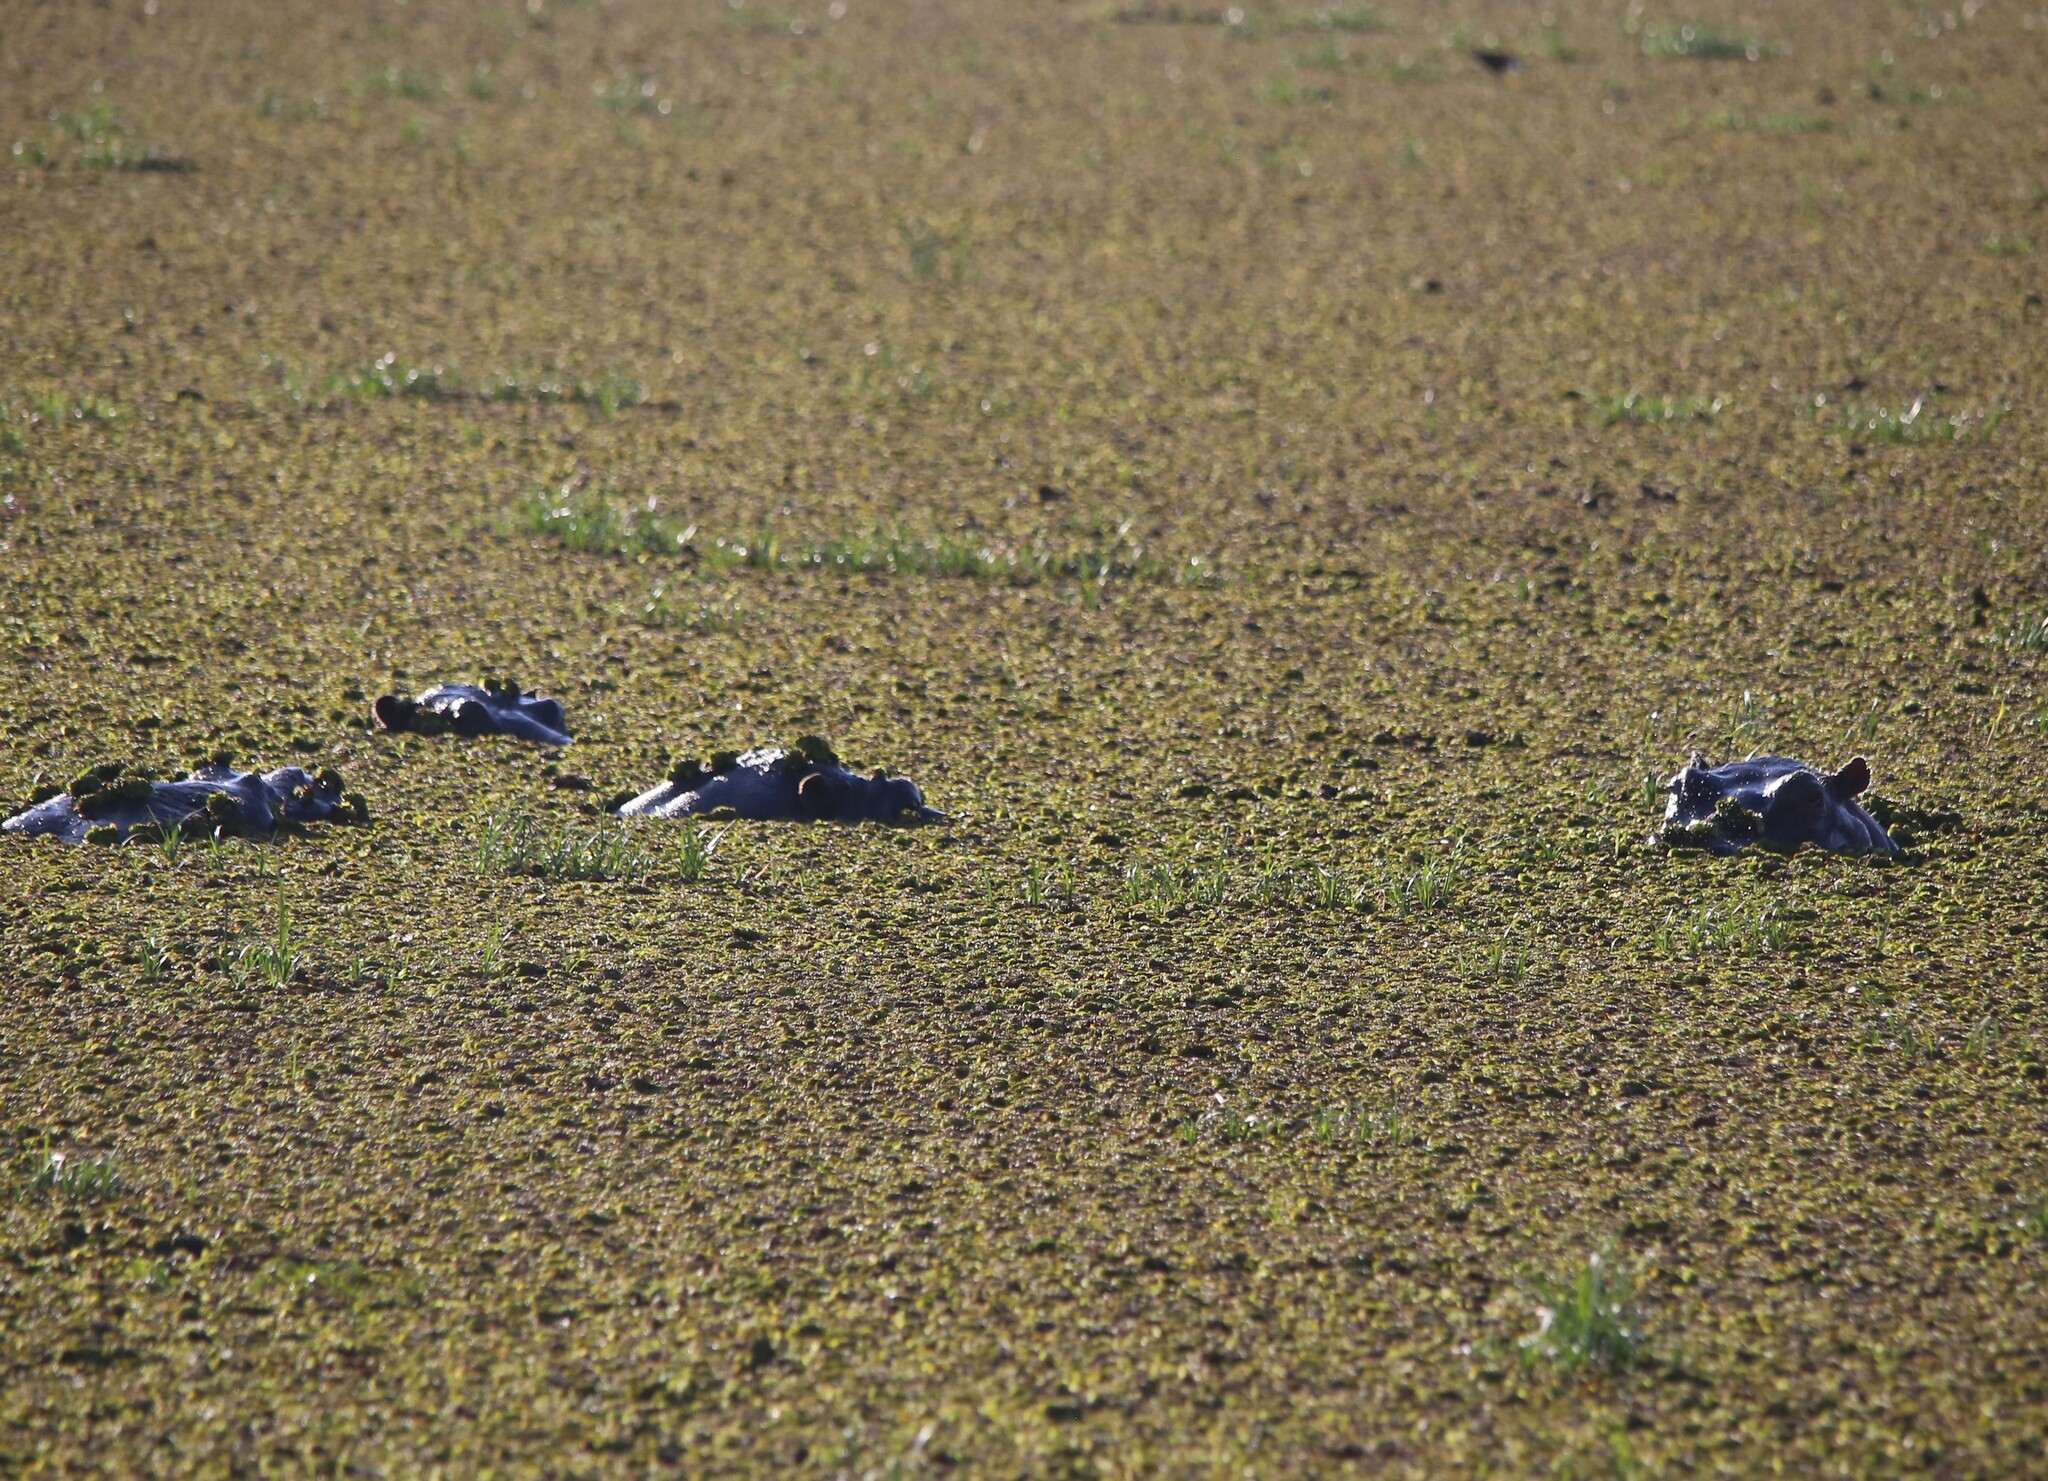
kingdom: Animalia
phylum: Chordata
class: Mammalia
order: Artiodactyla
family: Hippopotamidae
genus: Hippopotamus
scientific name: Hippopotamus amphibius
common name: Common hippopotamus
